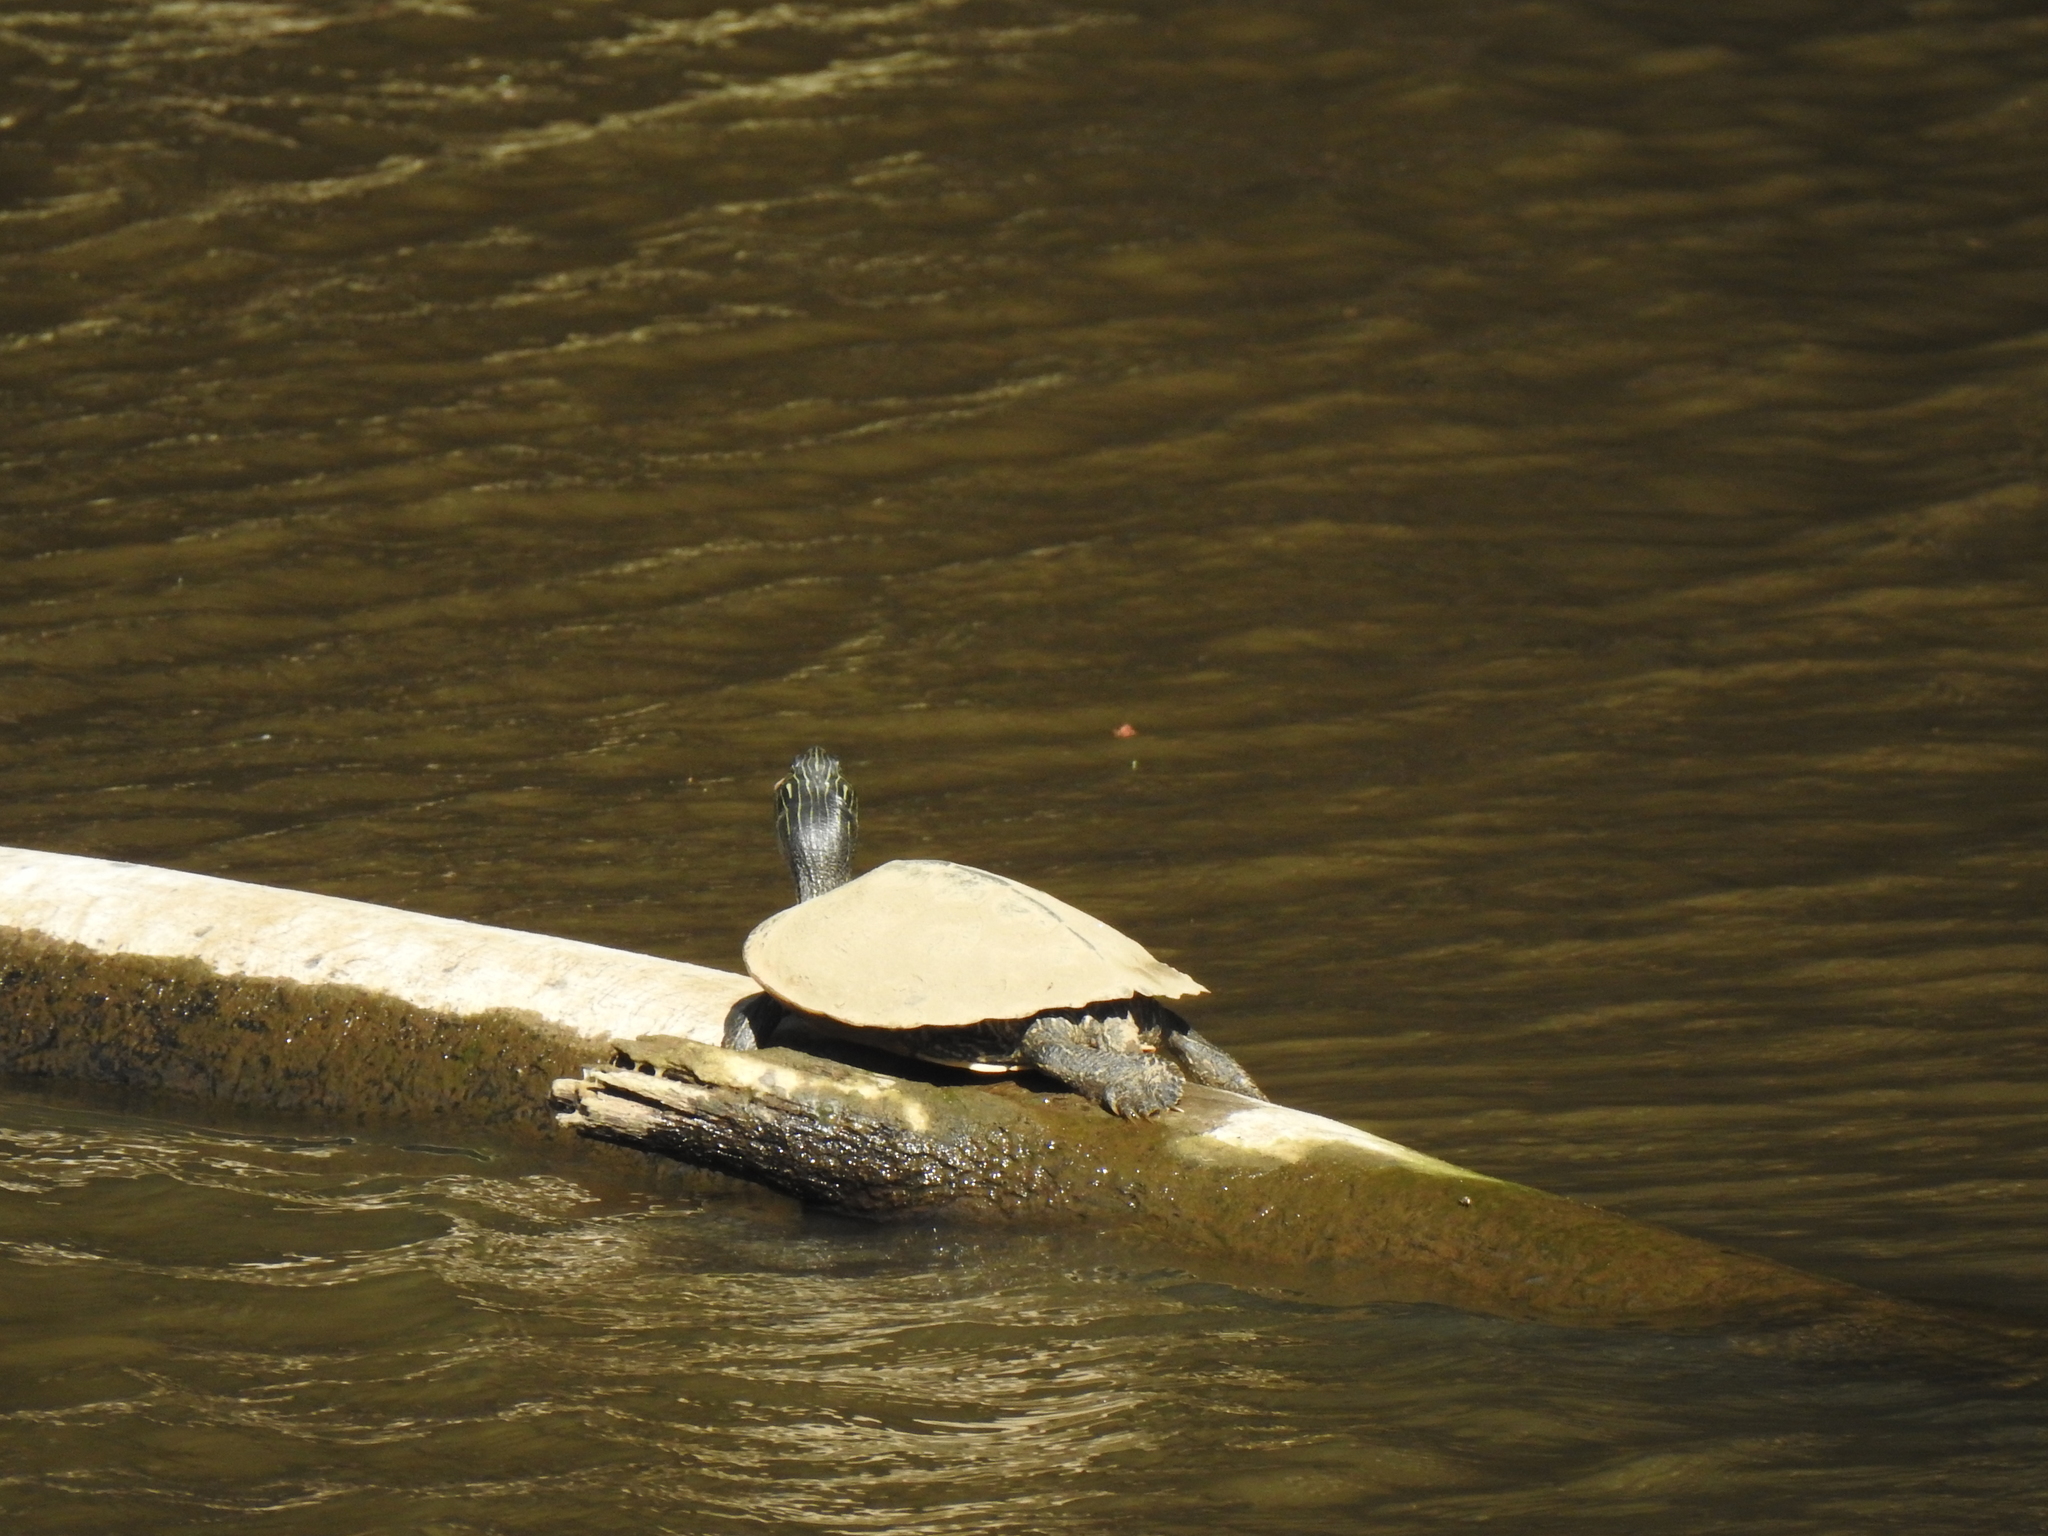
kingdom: Animalia
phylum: Chordata
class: Testudines
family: Emydidae
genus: Graptemys
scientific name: Graptemys geographica
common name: Common map turtle
